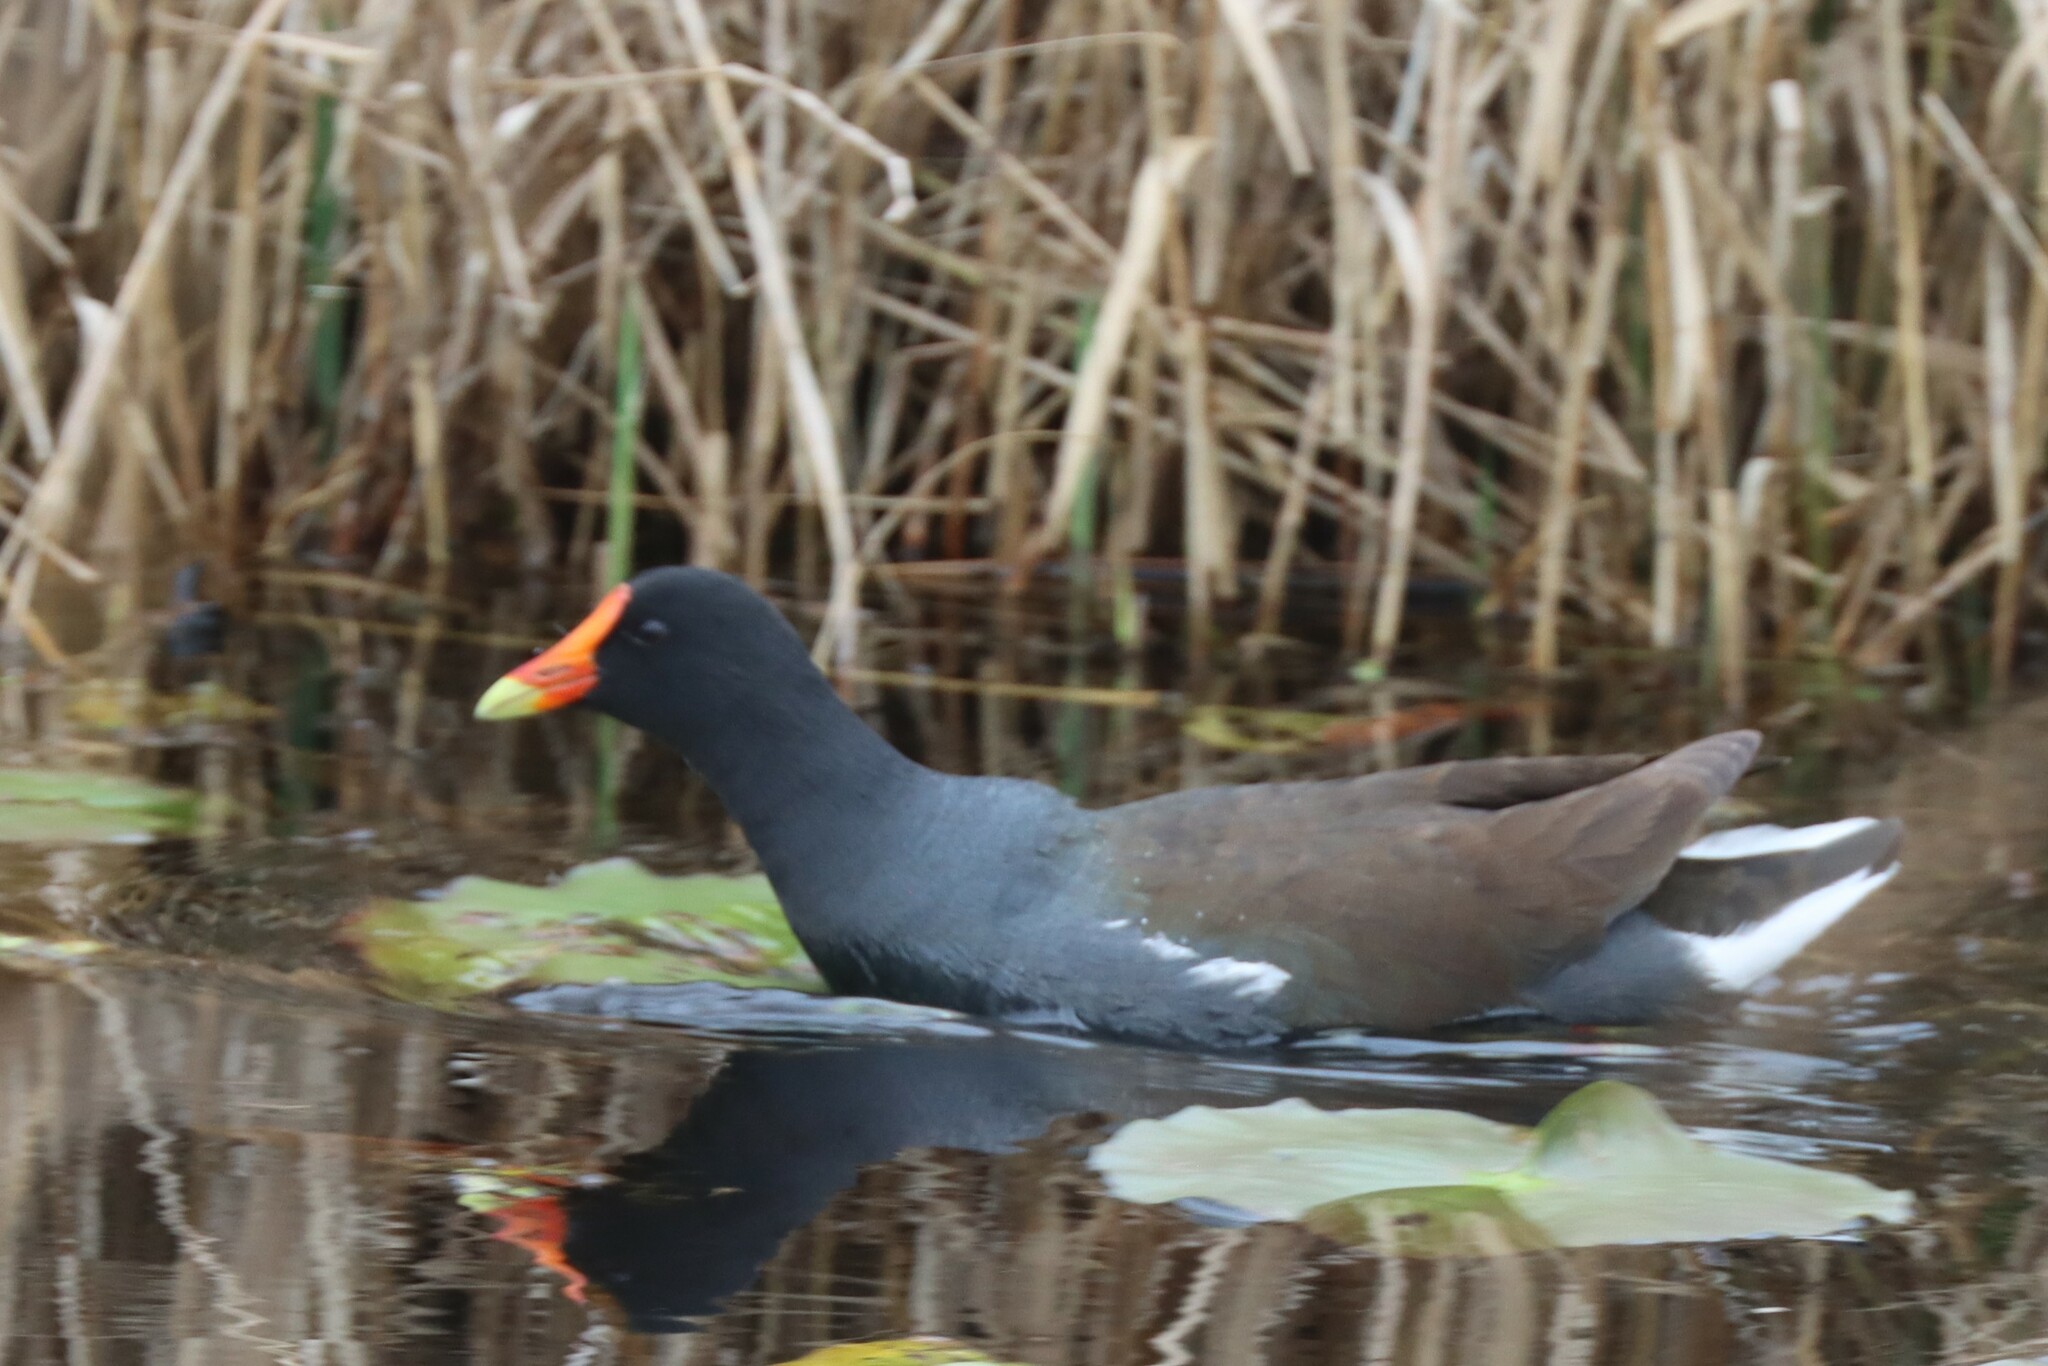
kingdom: Animalia
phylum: Chordata
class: Aves
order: Gruiformes
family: Rallidae
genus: Gallinula
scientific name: Gallinula chloropus
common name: Common moorhen
